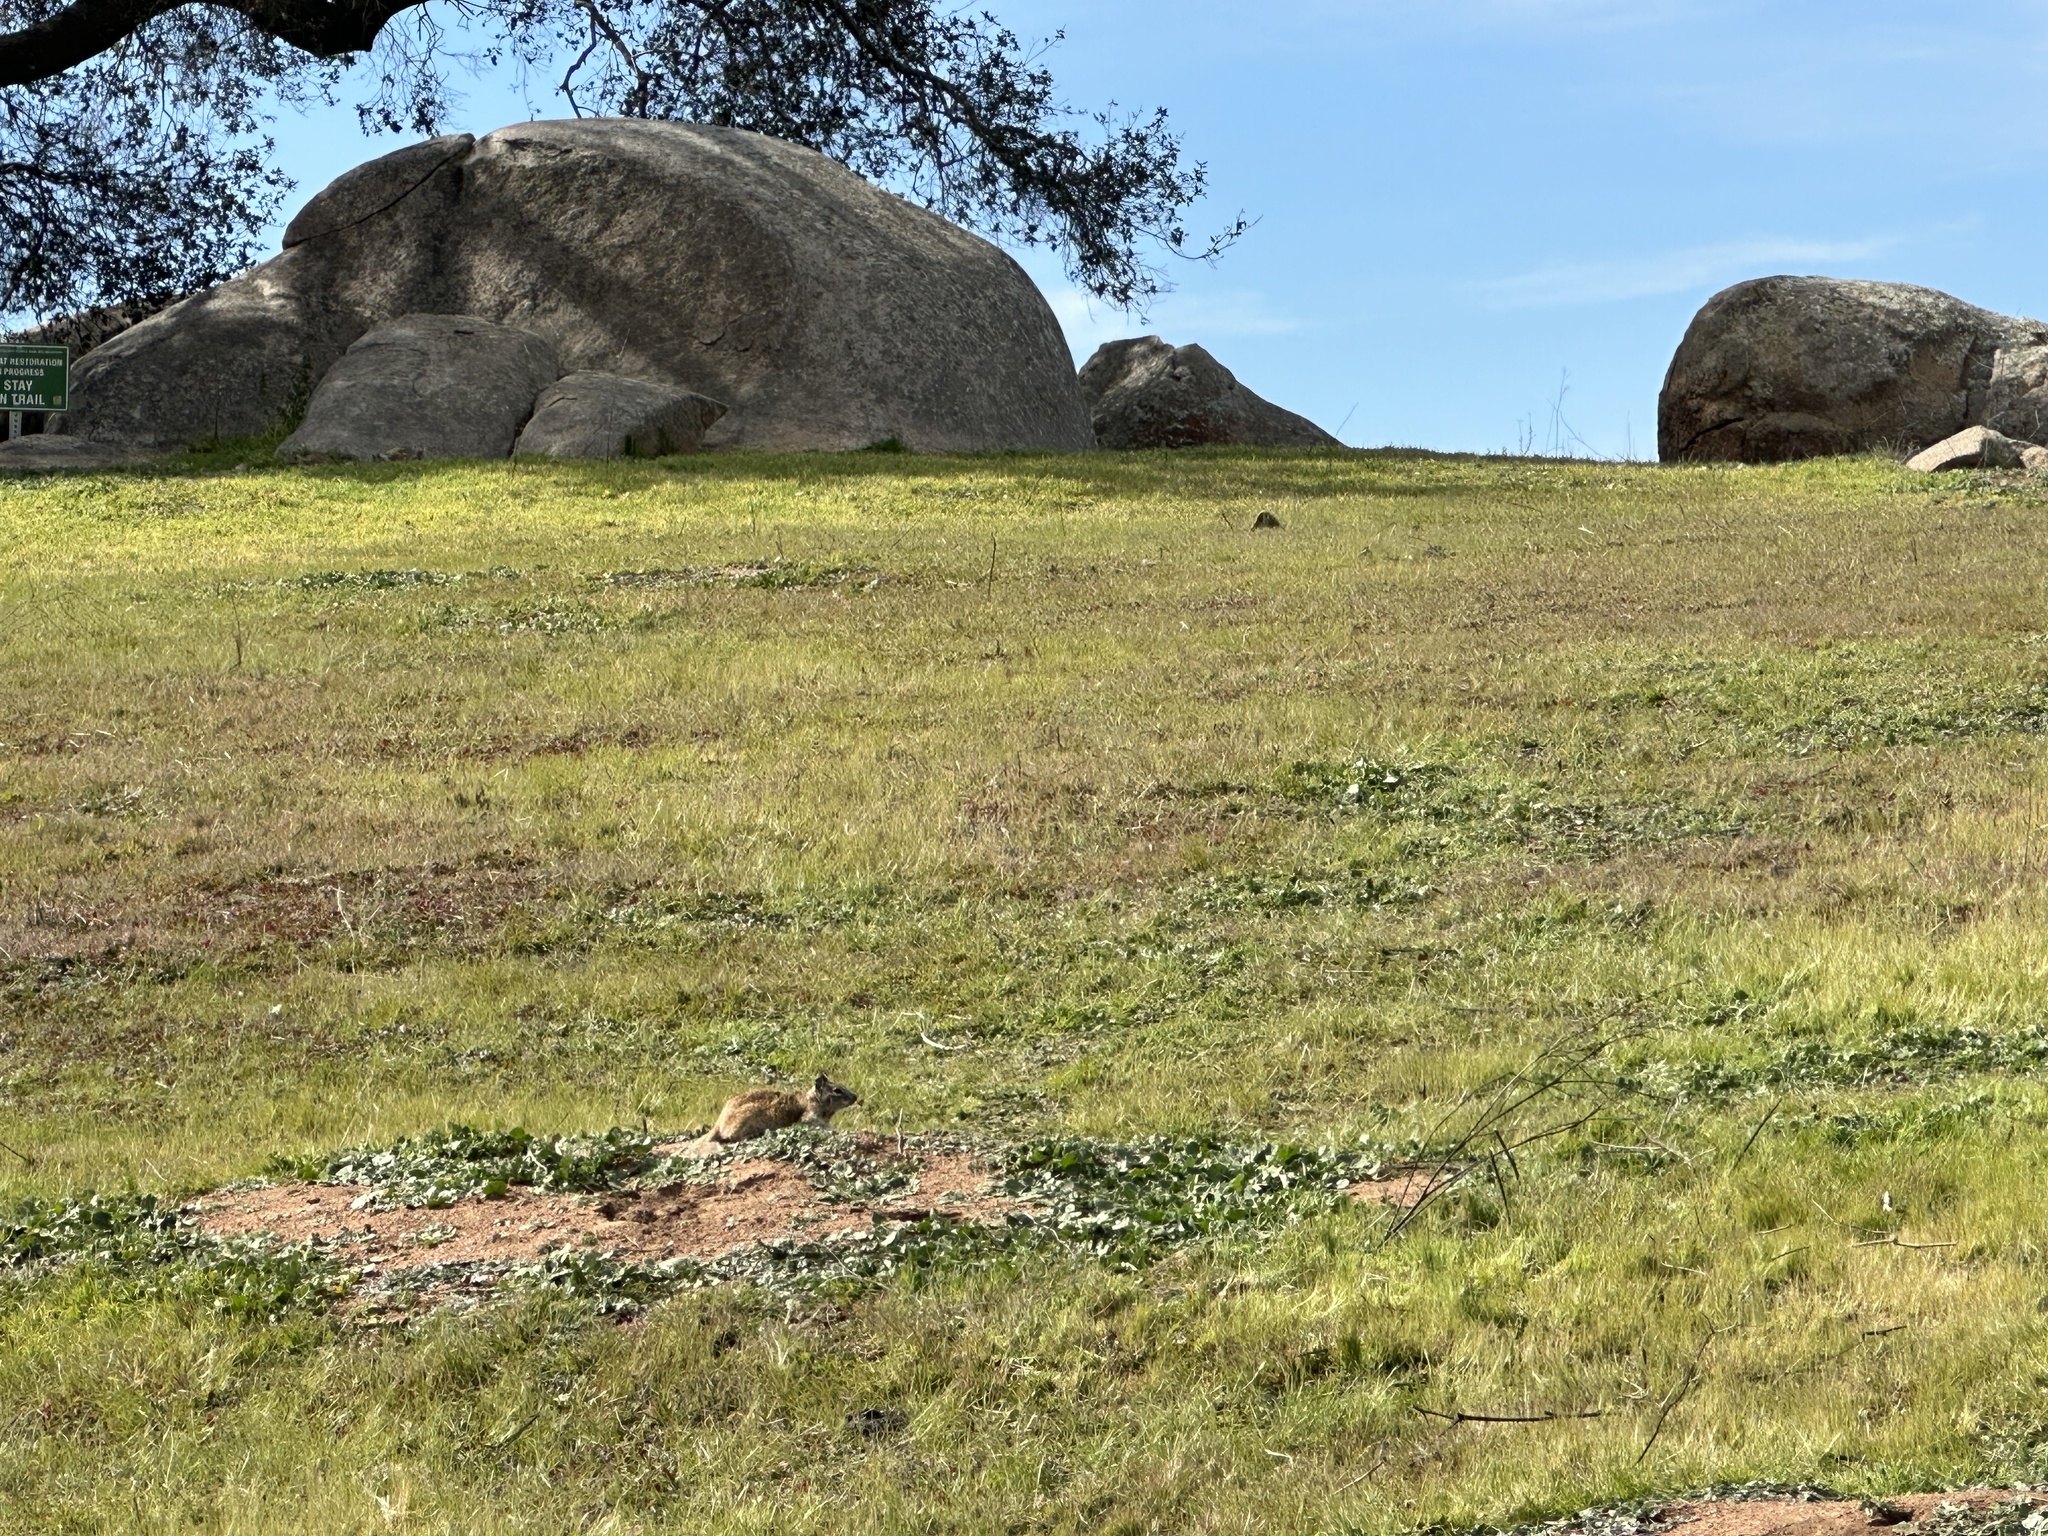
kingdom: Animalia
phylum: Chordata
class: Mammalia
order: Rodentia
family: Sciuridae
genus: Otospermophilus
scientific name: Otospermophilus beecheyi
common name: California ground squirrel
